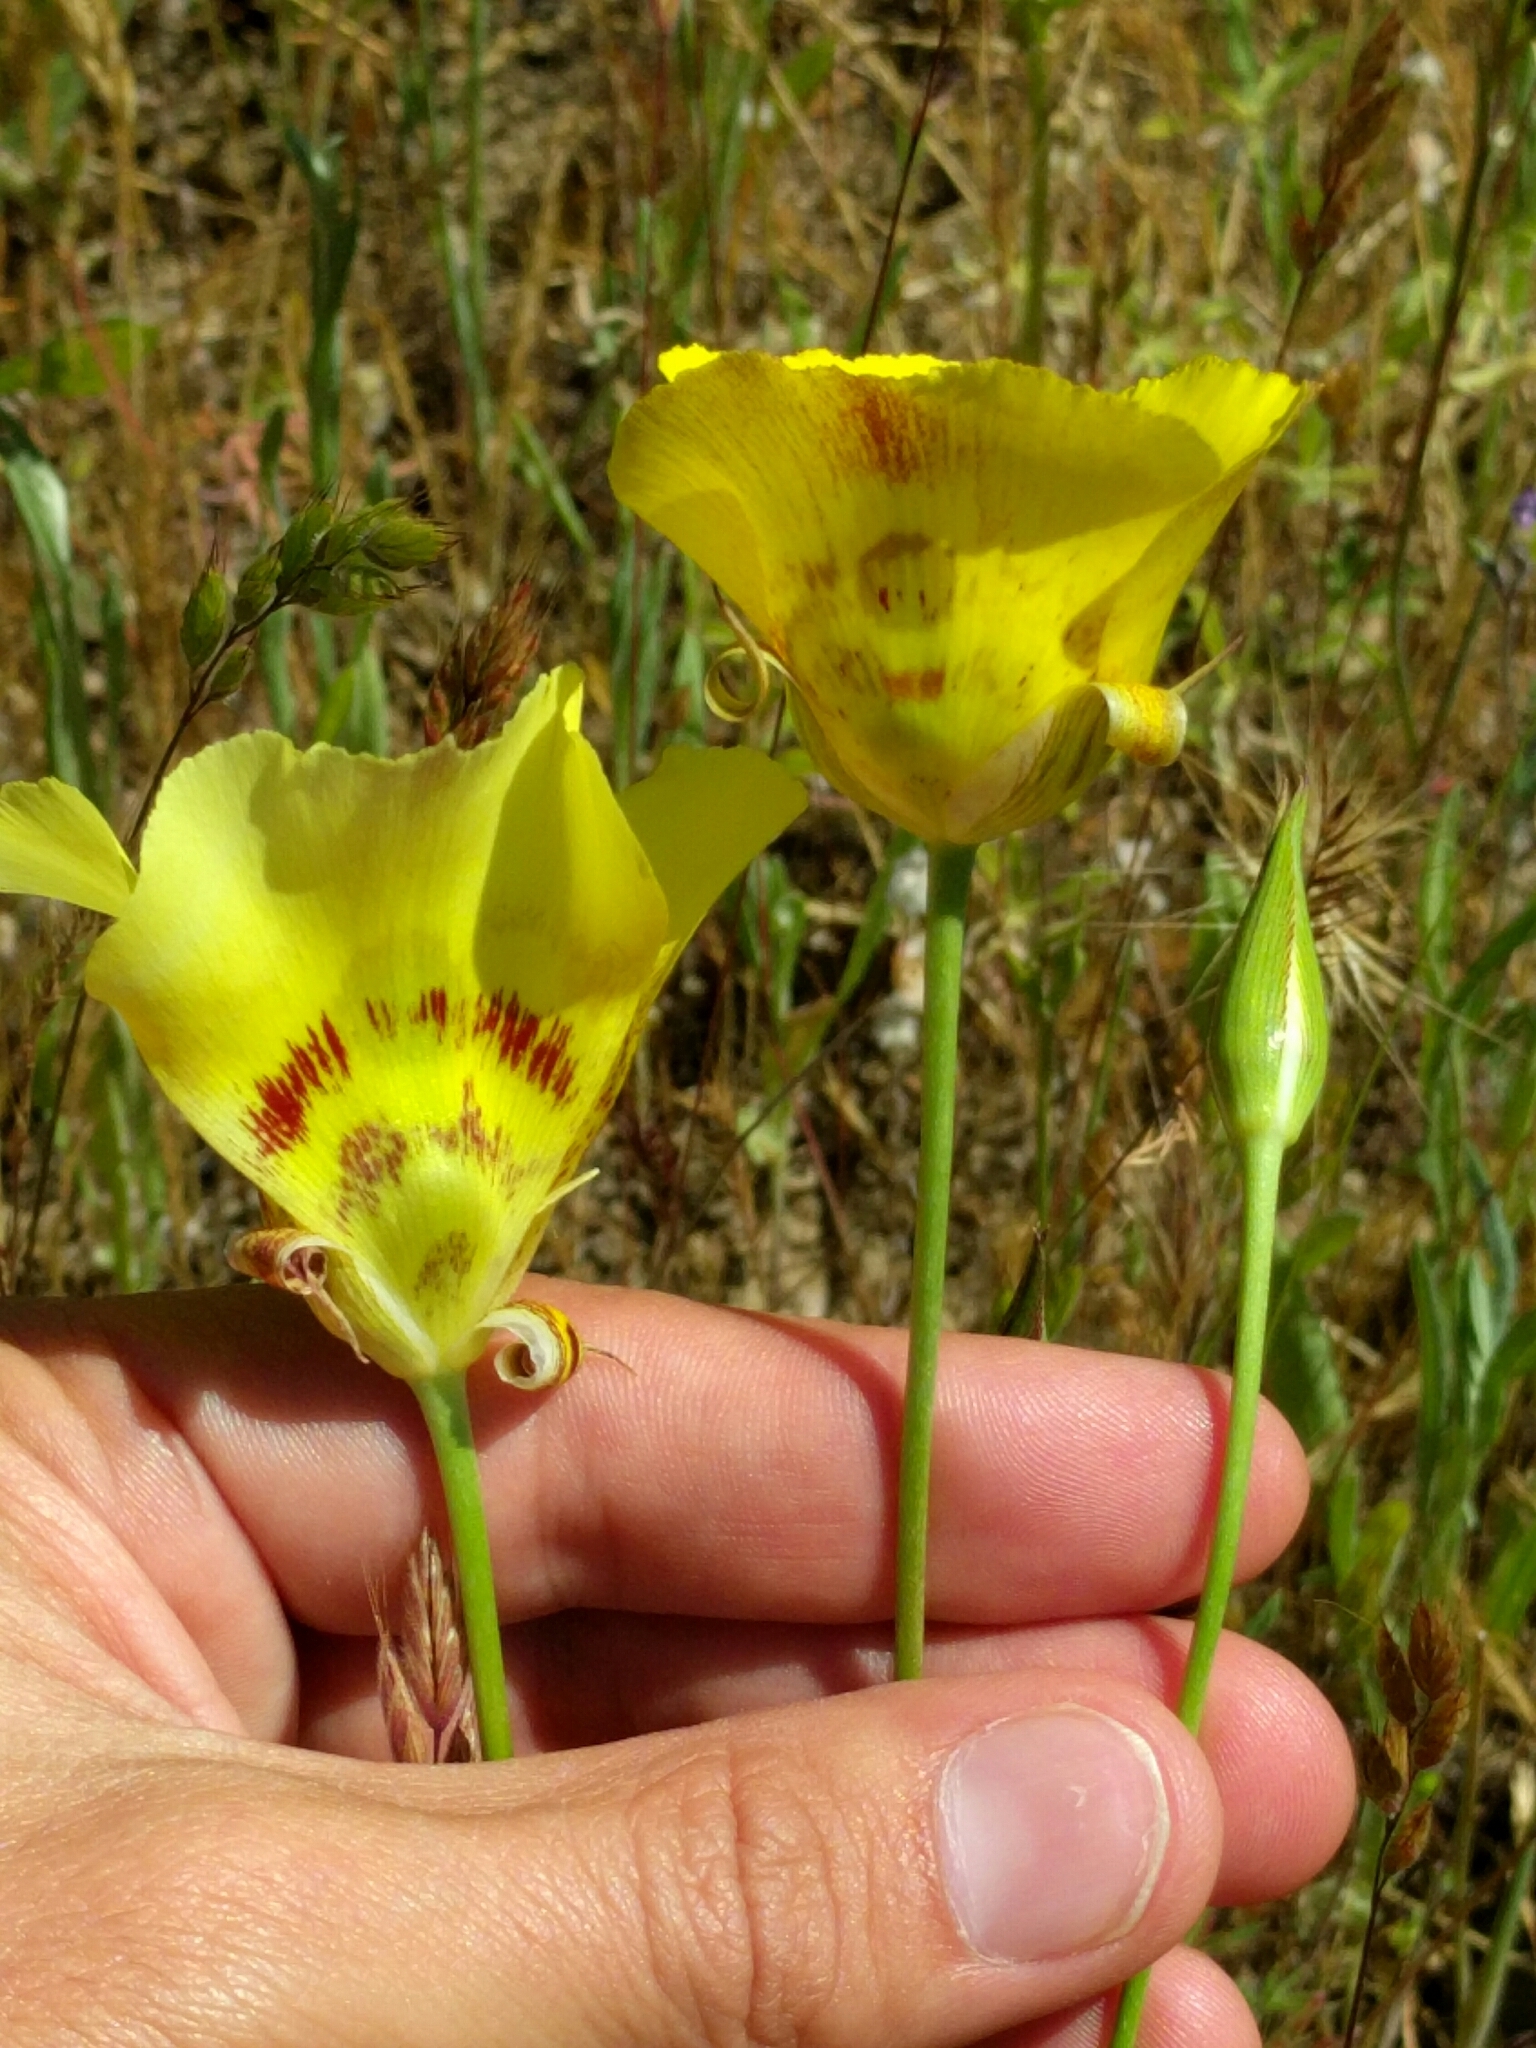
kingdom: Plantae
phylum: Tracheophyta
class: Liliopsida
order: Liliales
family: Liliaceae
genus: Calochortus
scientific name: Calochortus superbus
